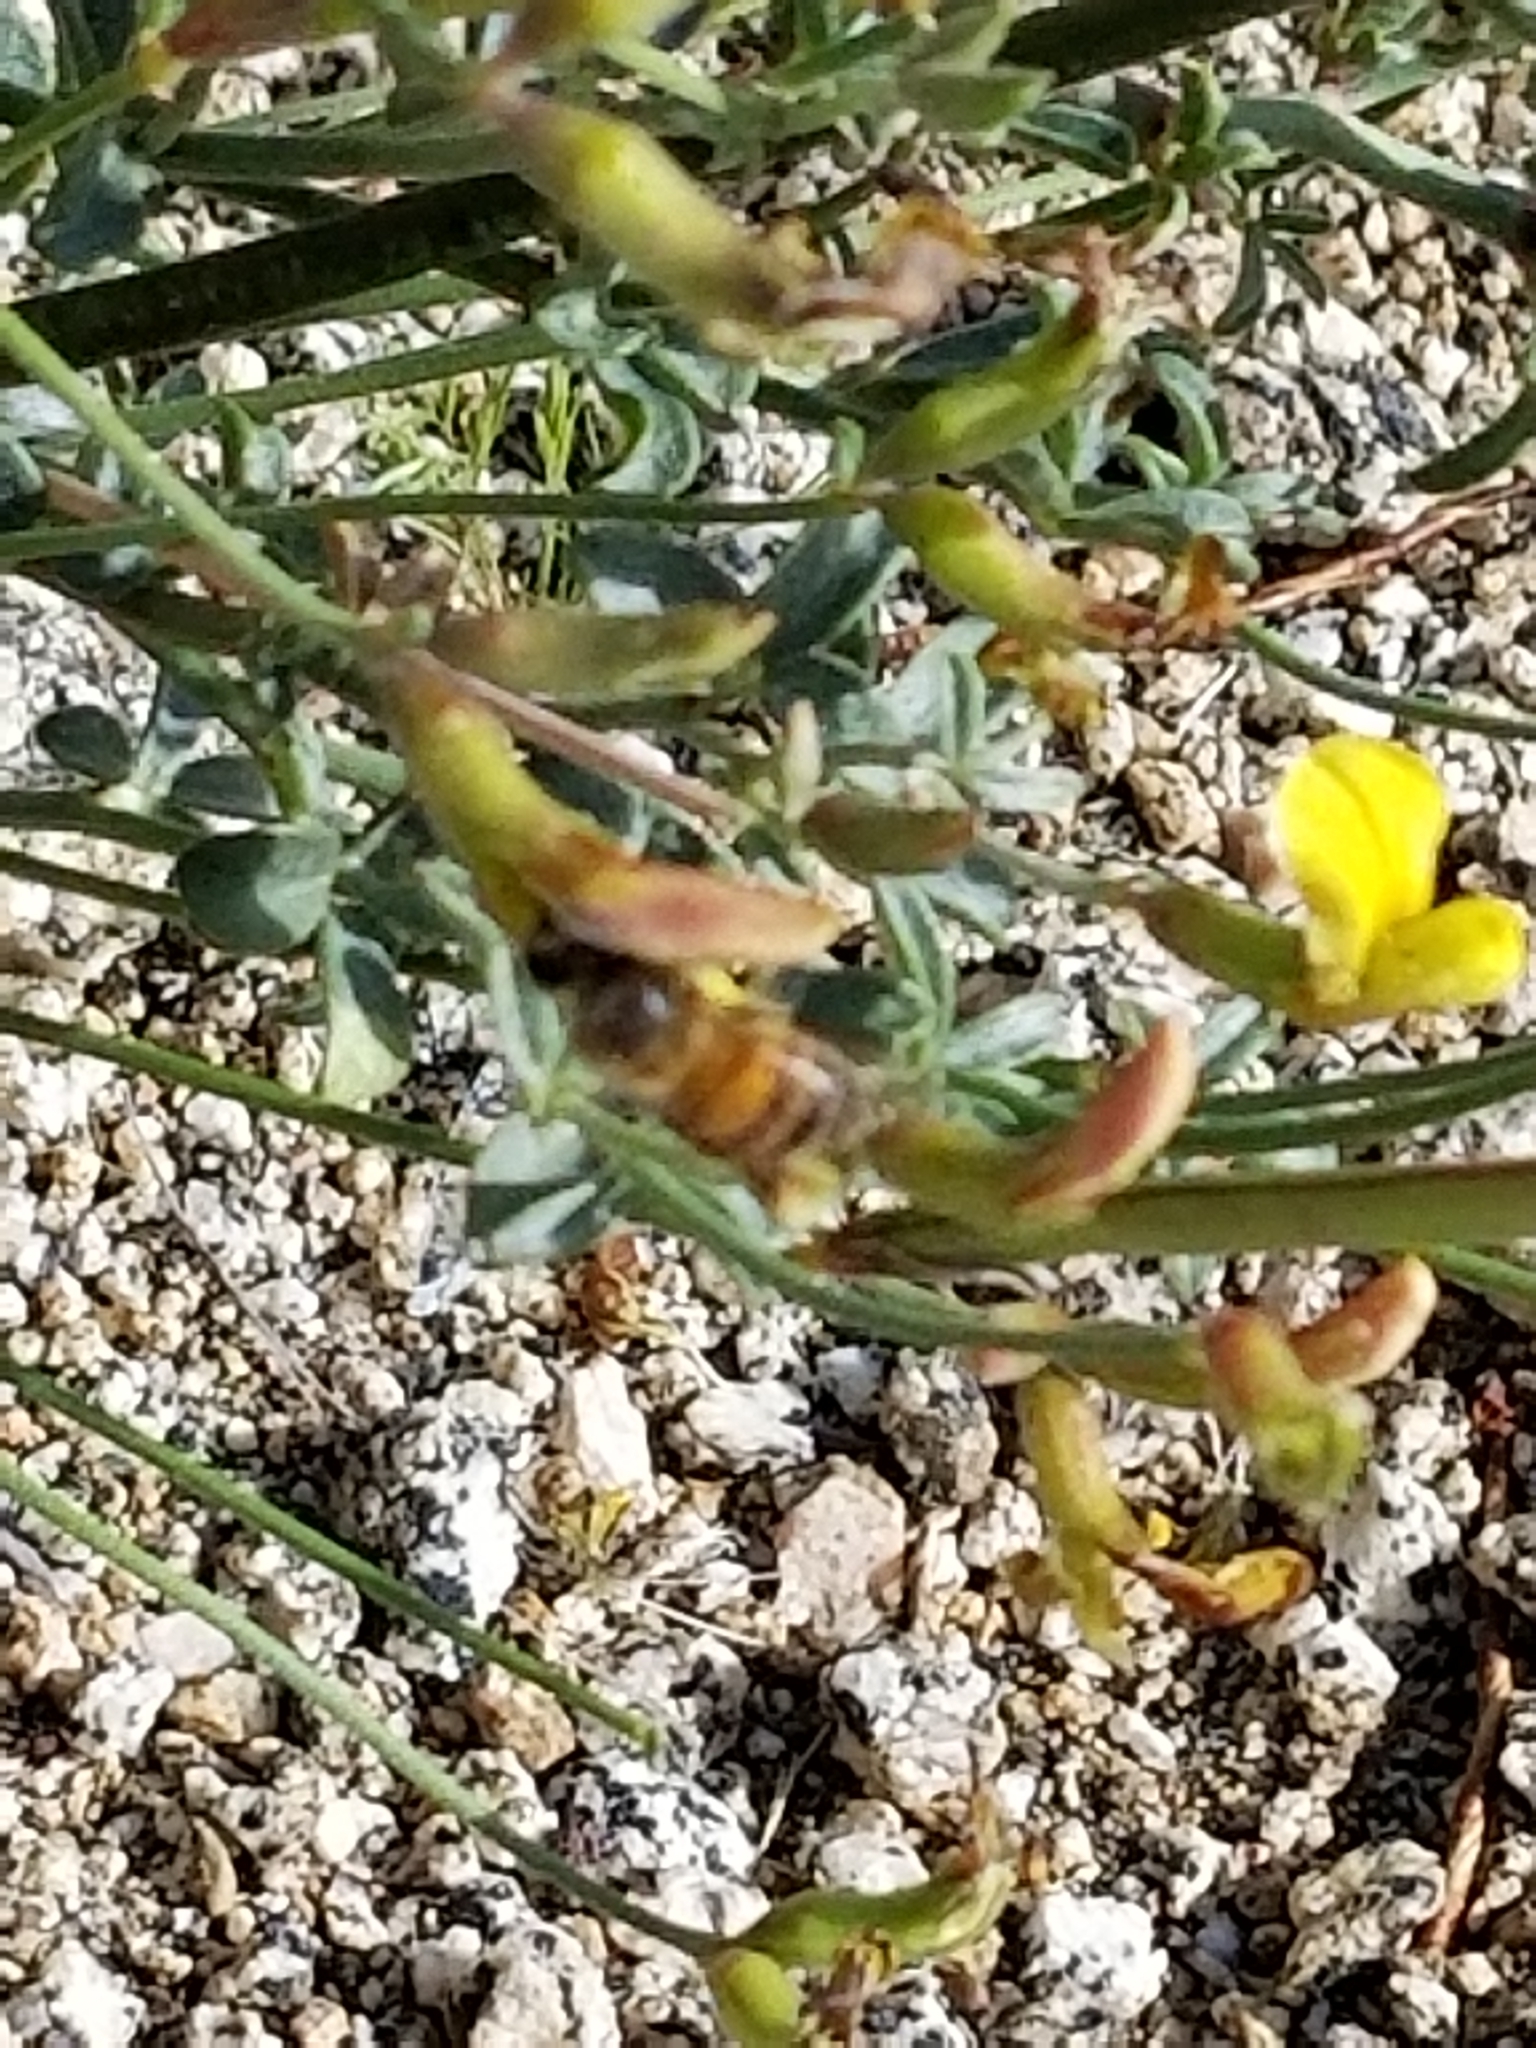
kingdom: Animalia
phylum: Arthropoda
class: Insecta
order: Hymenoptera
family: Apidae
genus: Apis
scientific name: Apis mellifera
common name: Honey bee
